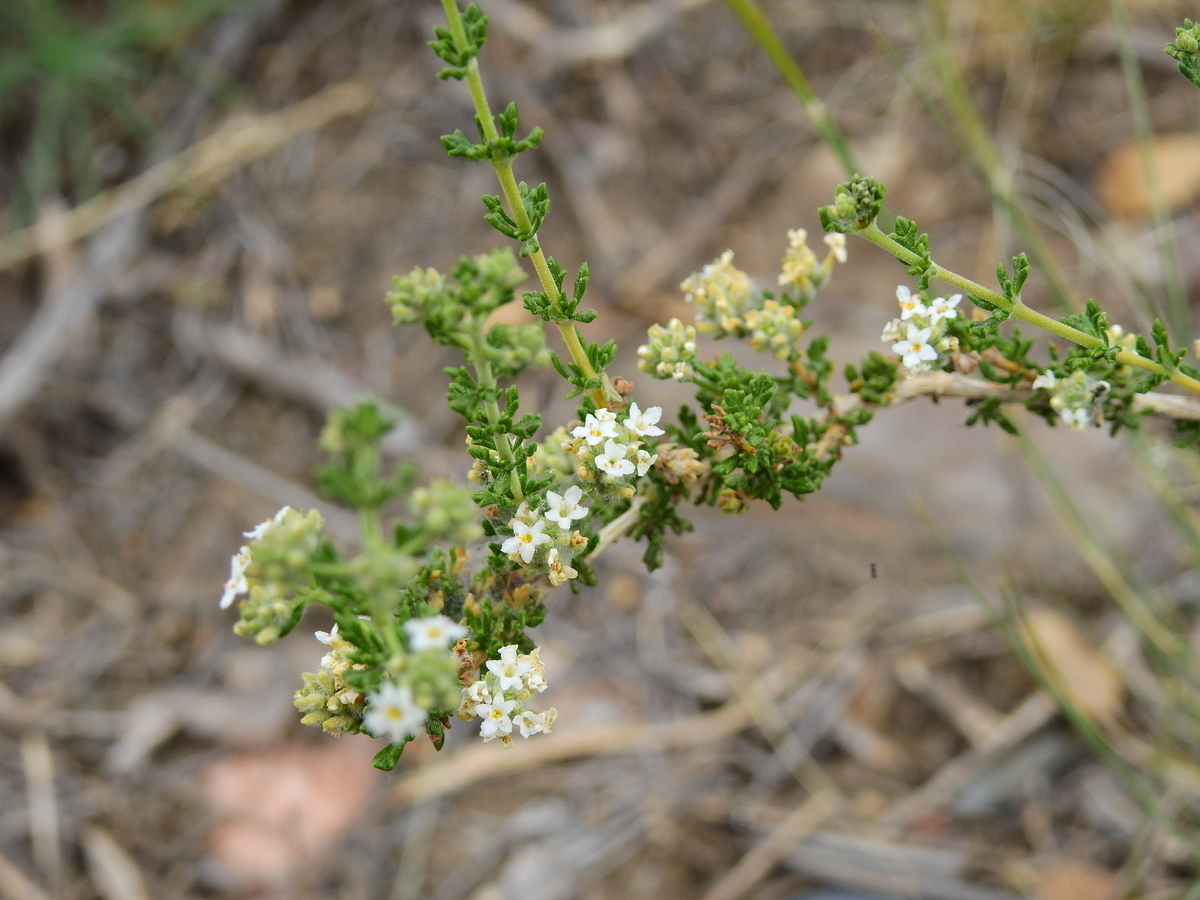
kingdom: Plantae
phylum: Tracheophyta
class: Magnoliopsida
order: Lamiales
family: Verbenaceae
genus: Acantholippia
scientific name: Acantholippia seriphioides
